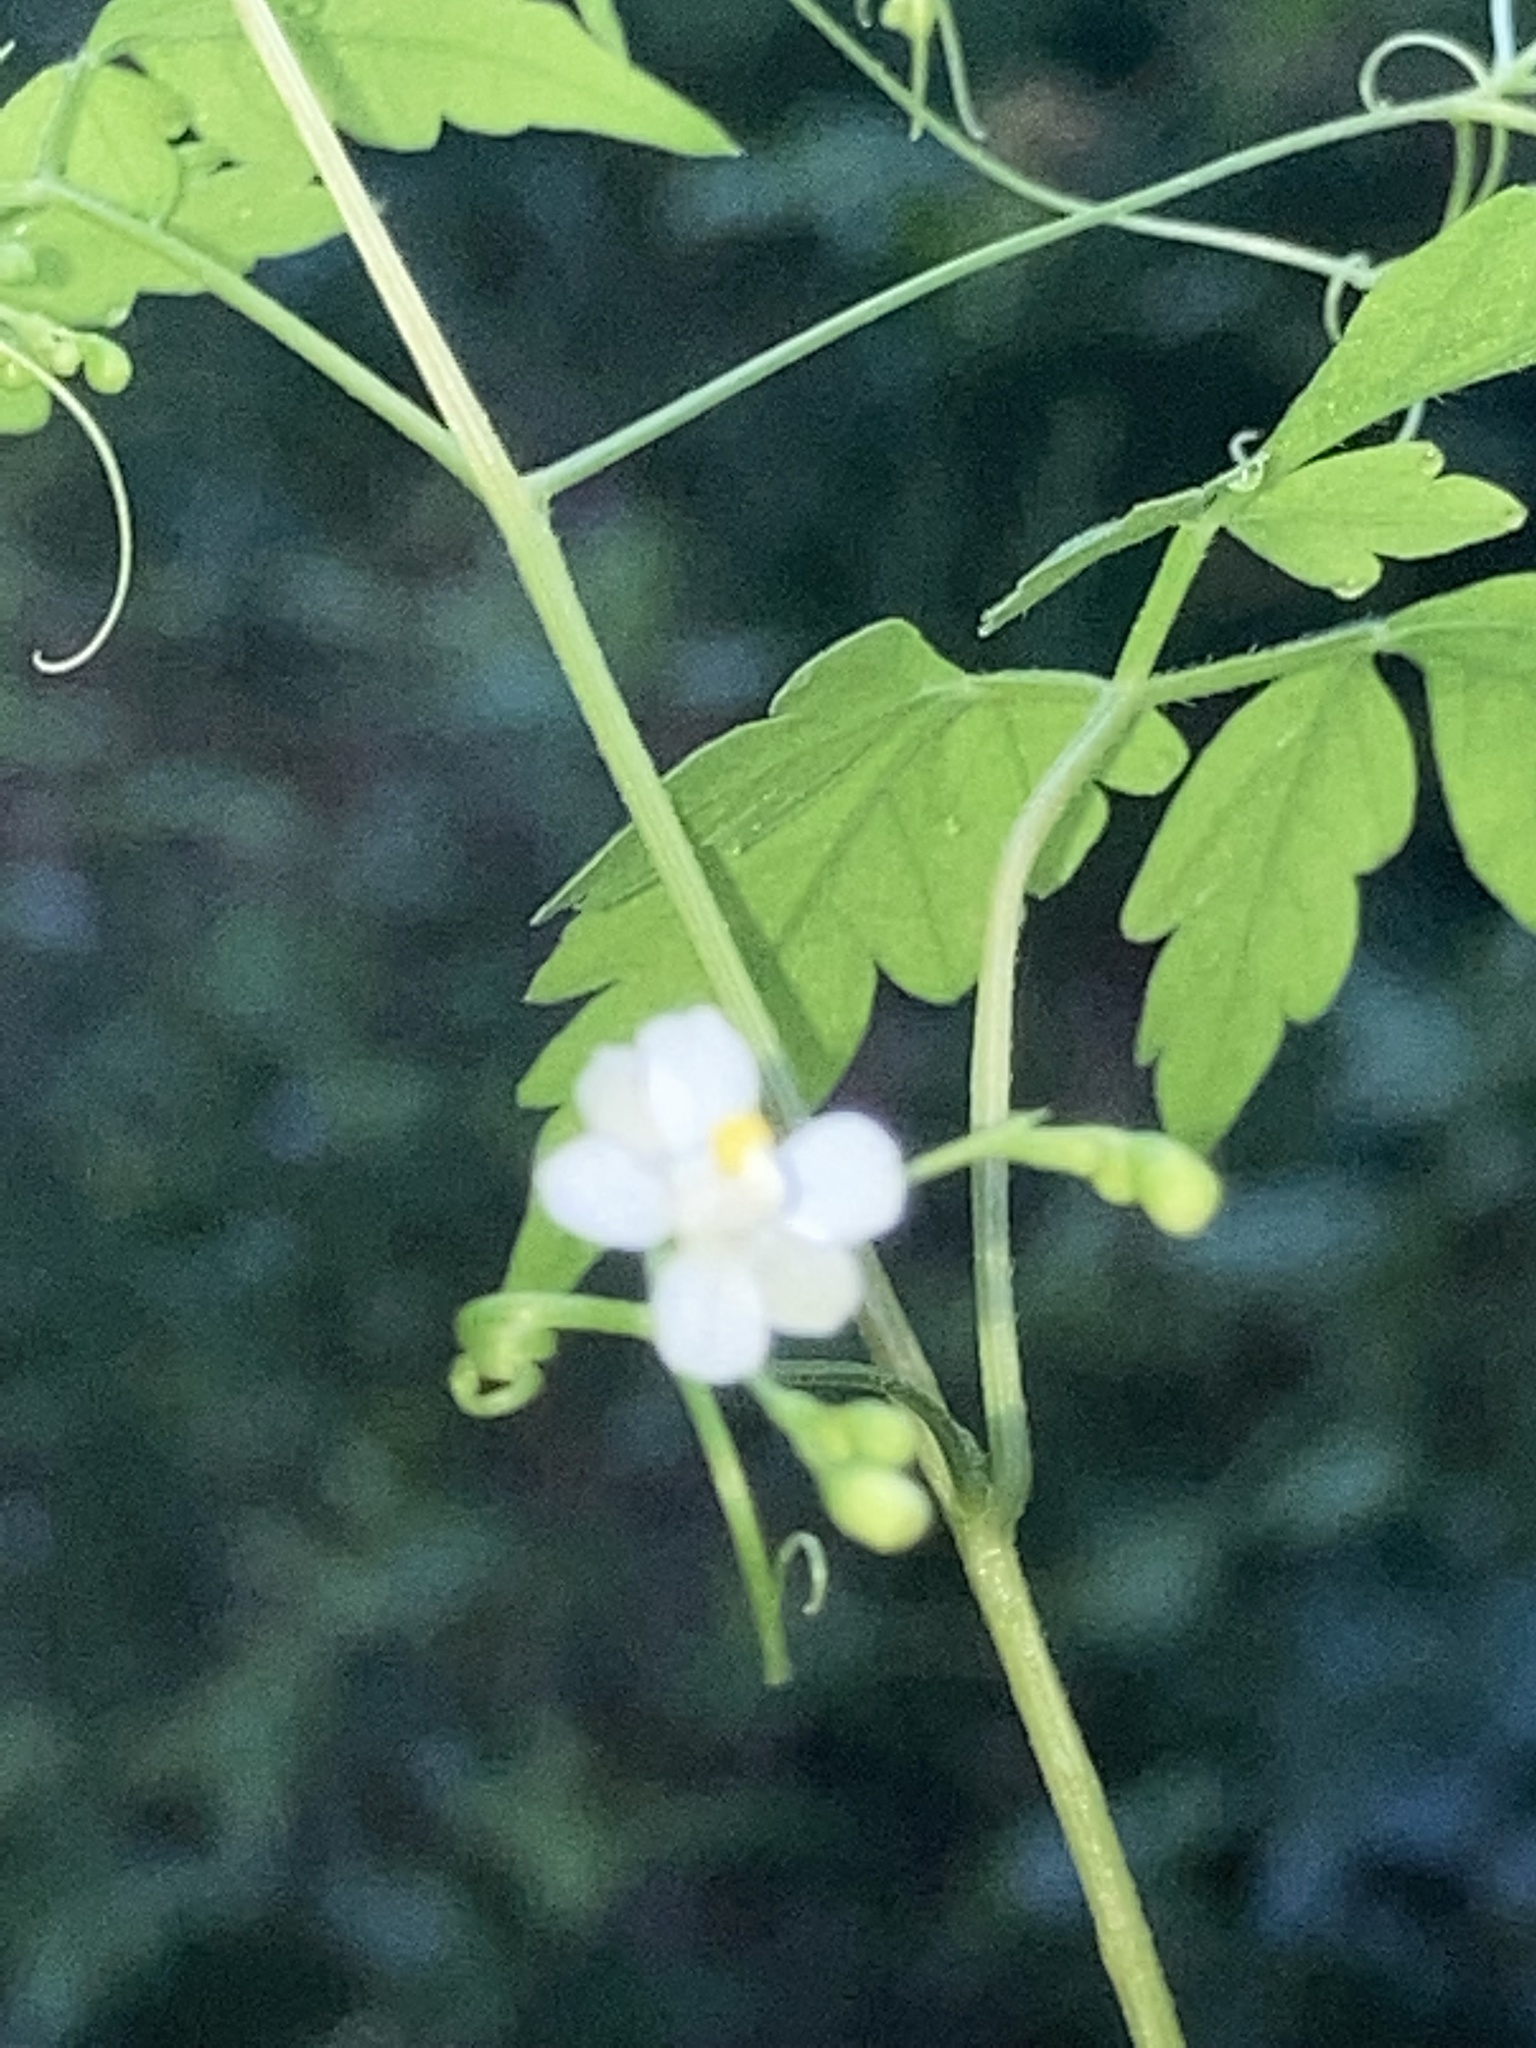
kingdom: Plantae
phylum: Tracheophyta
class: Magnoliopsida
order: Sapindales
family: Sapindaceae
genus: Cardiospermum
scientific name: Cardiospermum halicacabum
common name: Balloon vine
